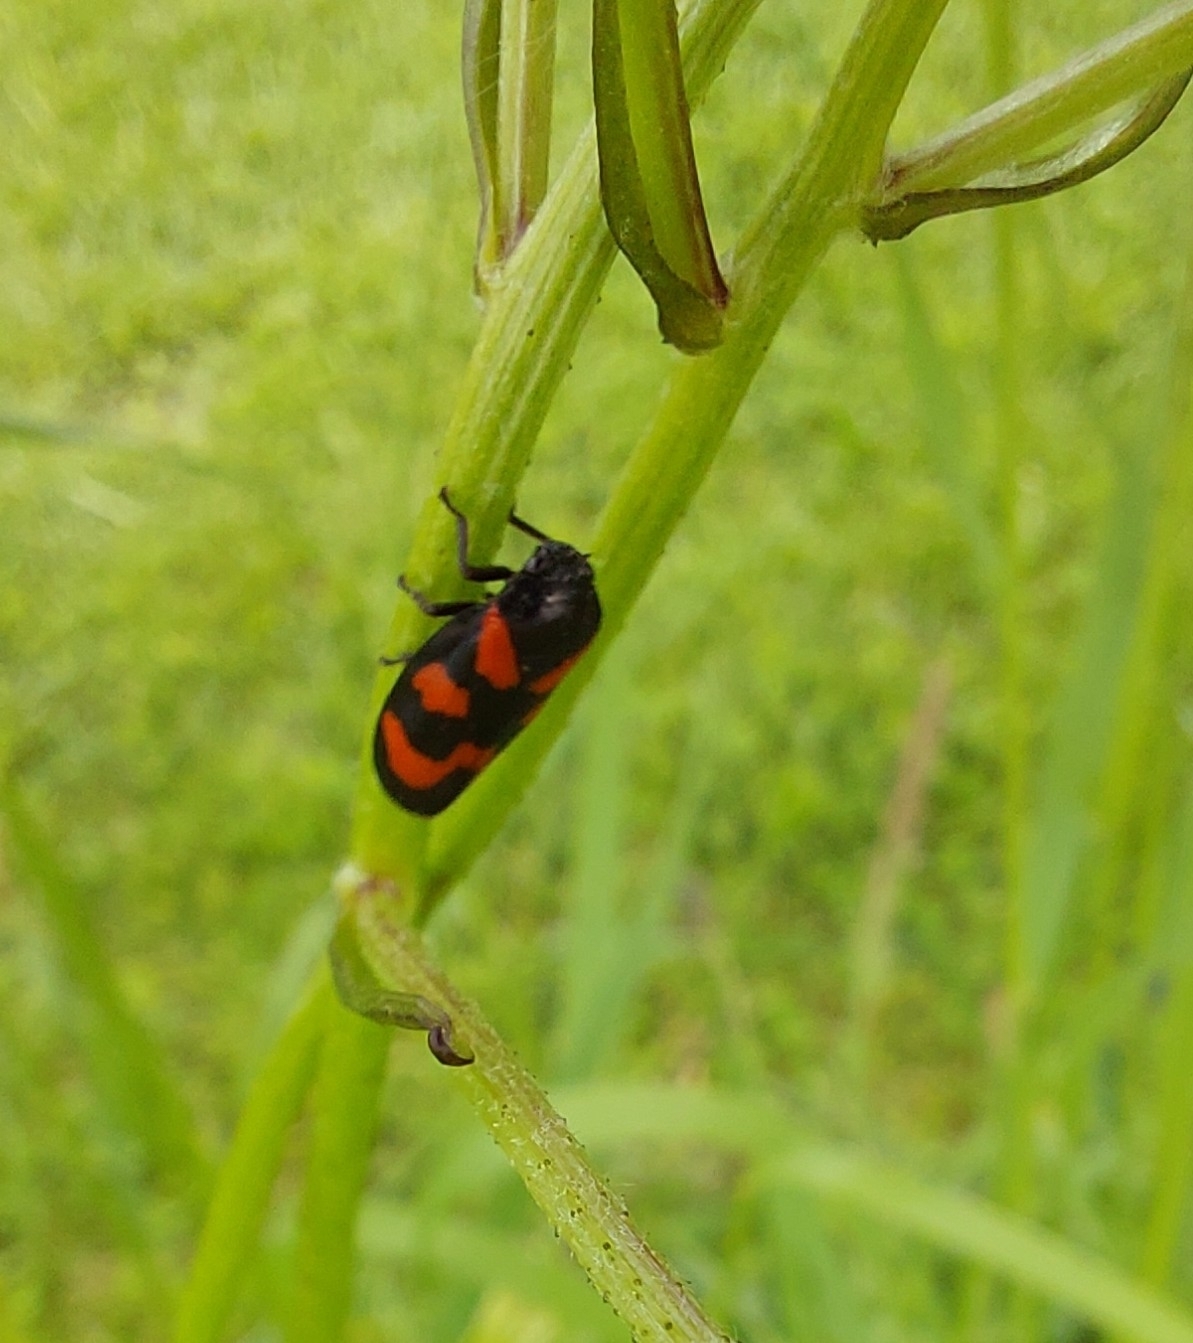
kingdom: Animalia
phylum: Arthropoda
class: Insecta
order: Hemiptera
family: Cercopidae
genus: Cercopis
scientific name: Cercopis vulnerata
